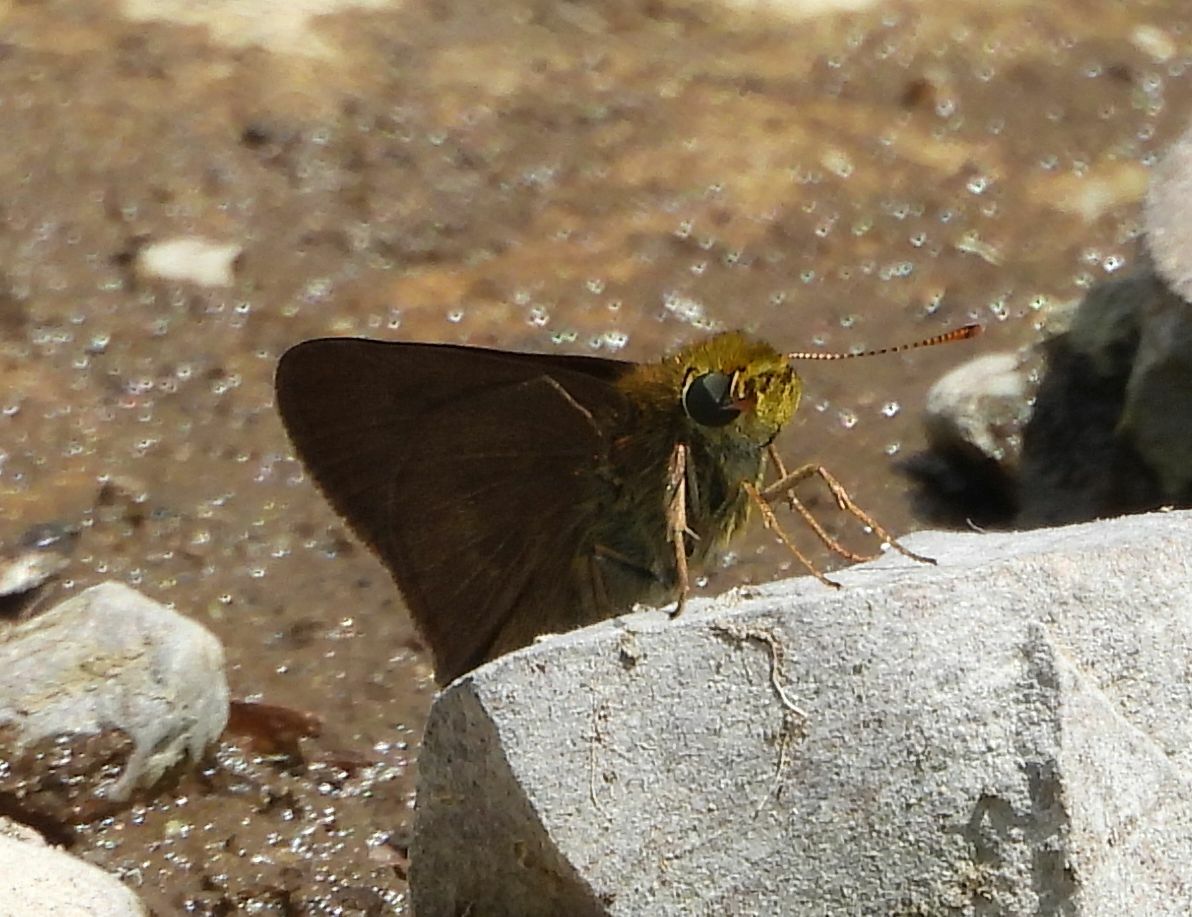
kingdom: Animalia
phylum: Arthropoda
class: Insecta
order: Lepidoptera
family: Hesperiidae
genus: Euphyes
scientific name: Euphyes vestris
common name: Dun skipper
